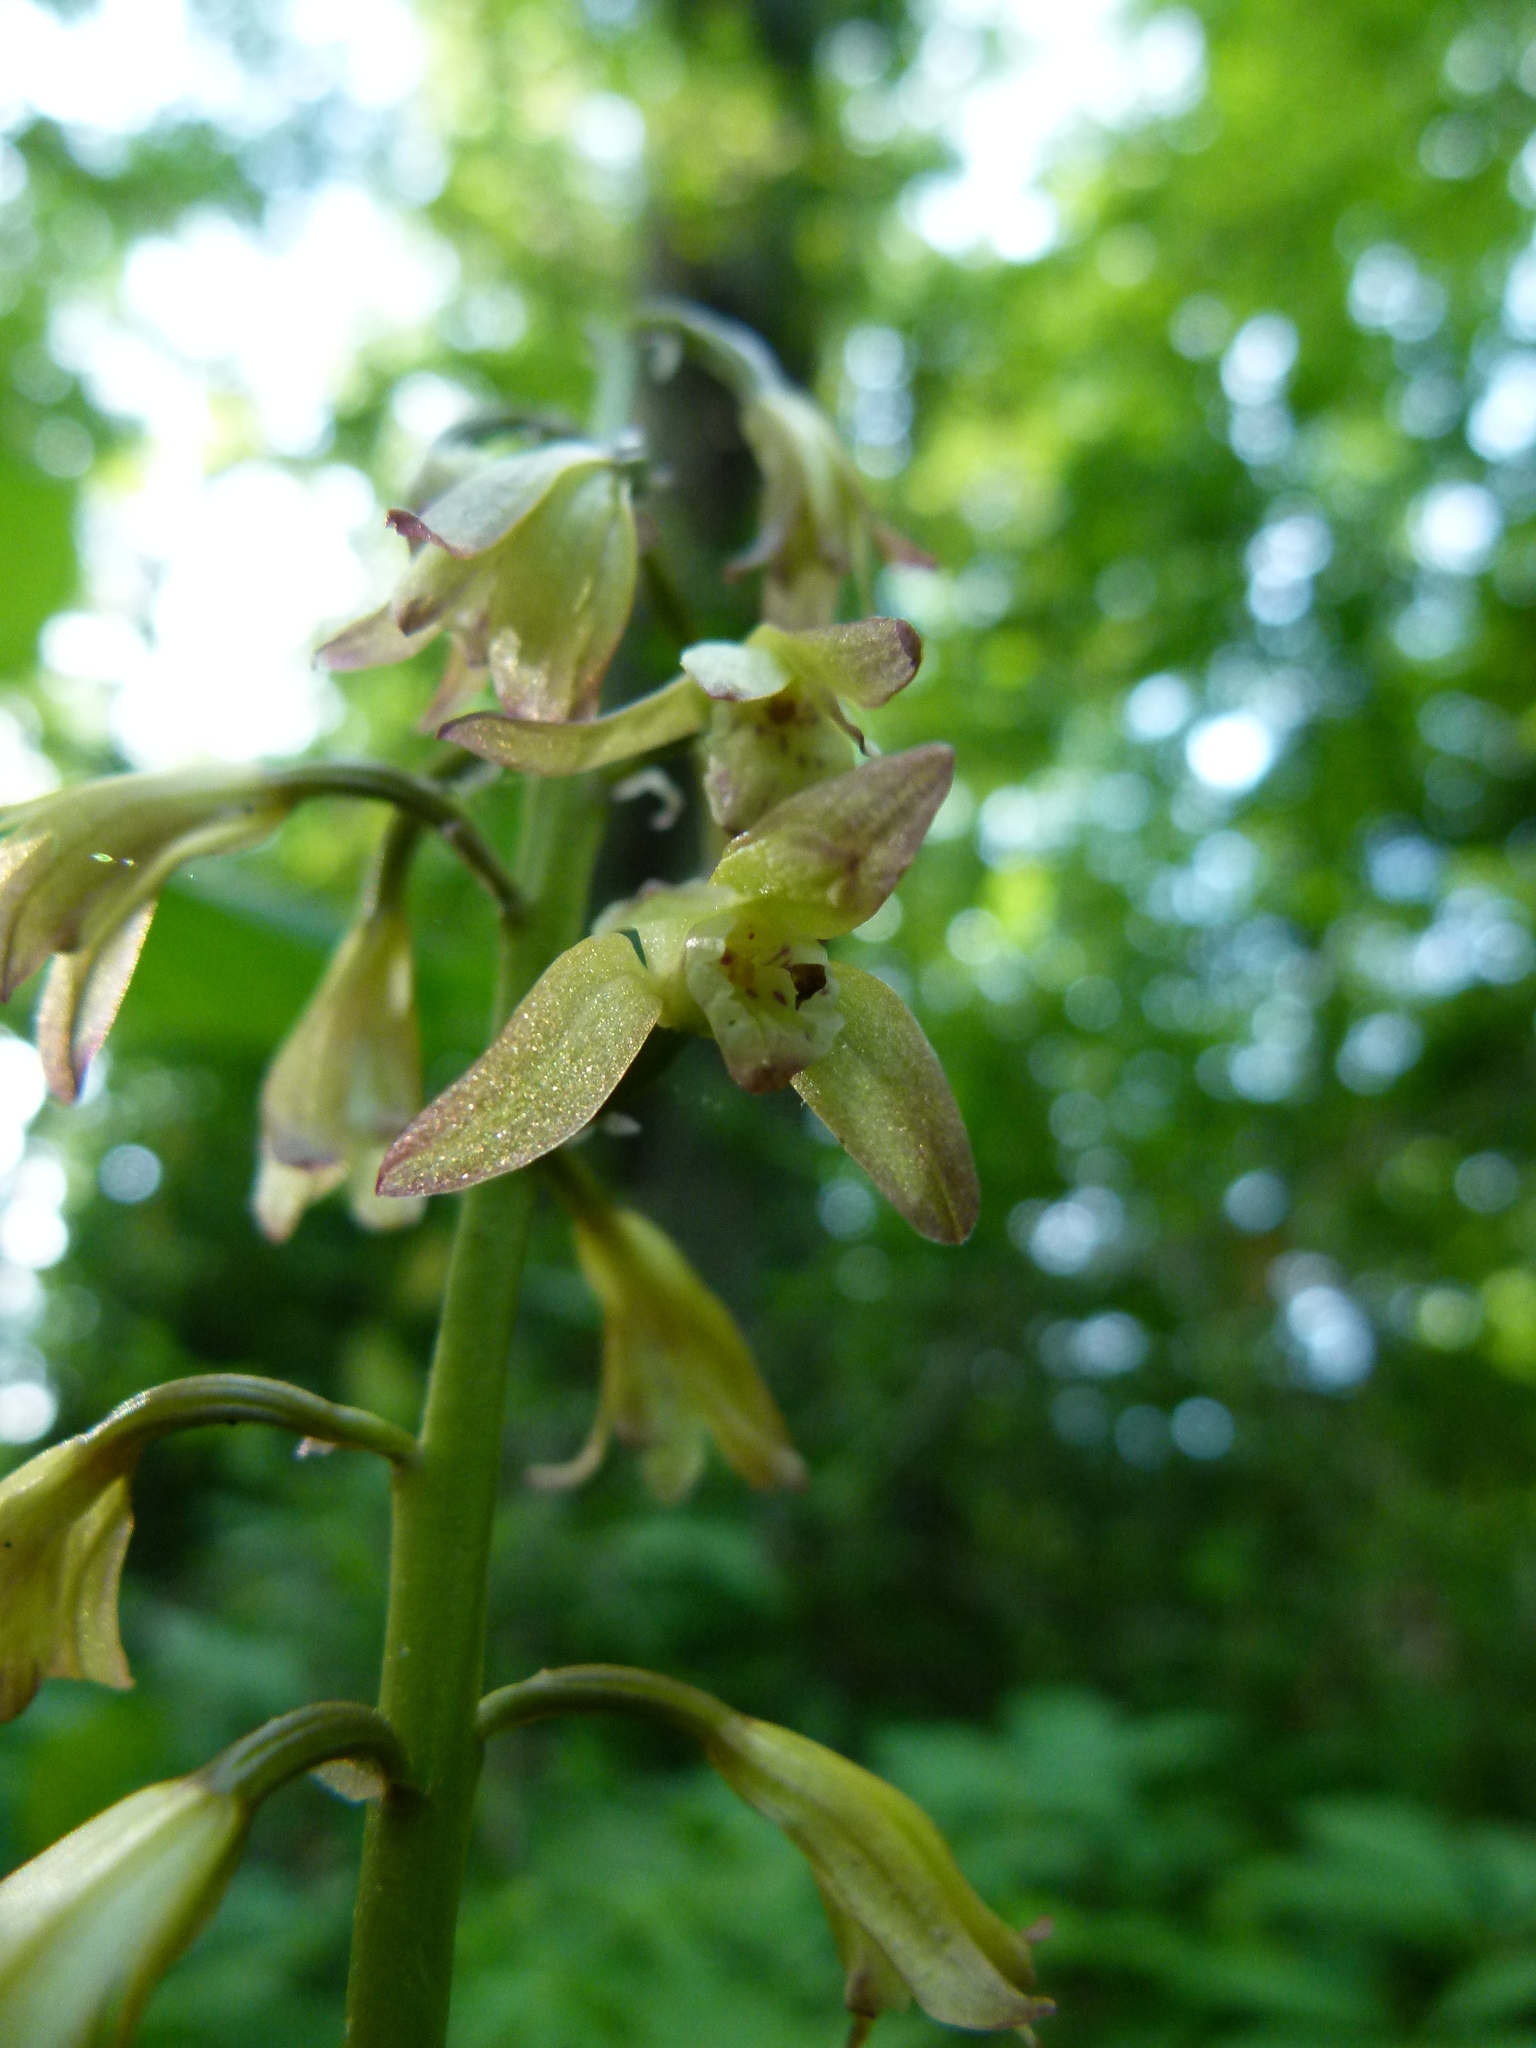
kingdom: Plantae
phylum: Tracheophyta
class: Liliopsida
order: Asparagales
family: Orchidaceae
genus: Aplectrum
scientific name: Aplectrum hyemale
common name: Adam-and-eve
